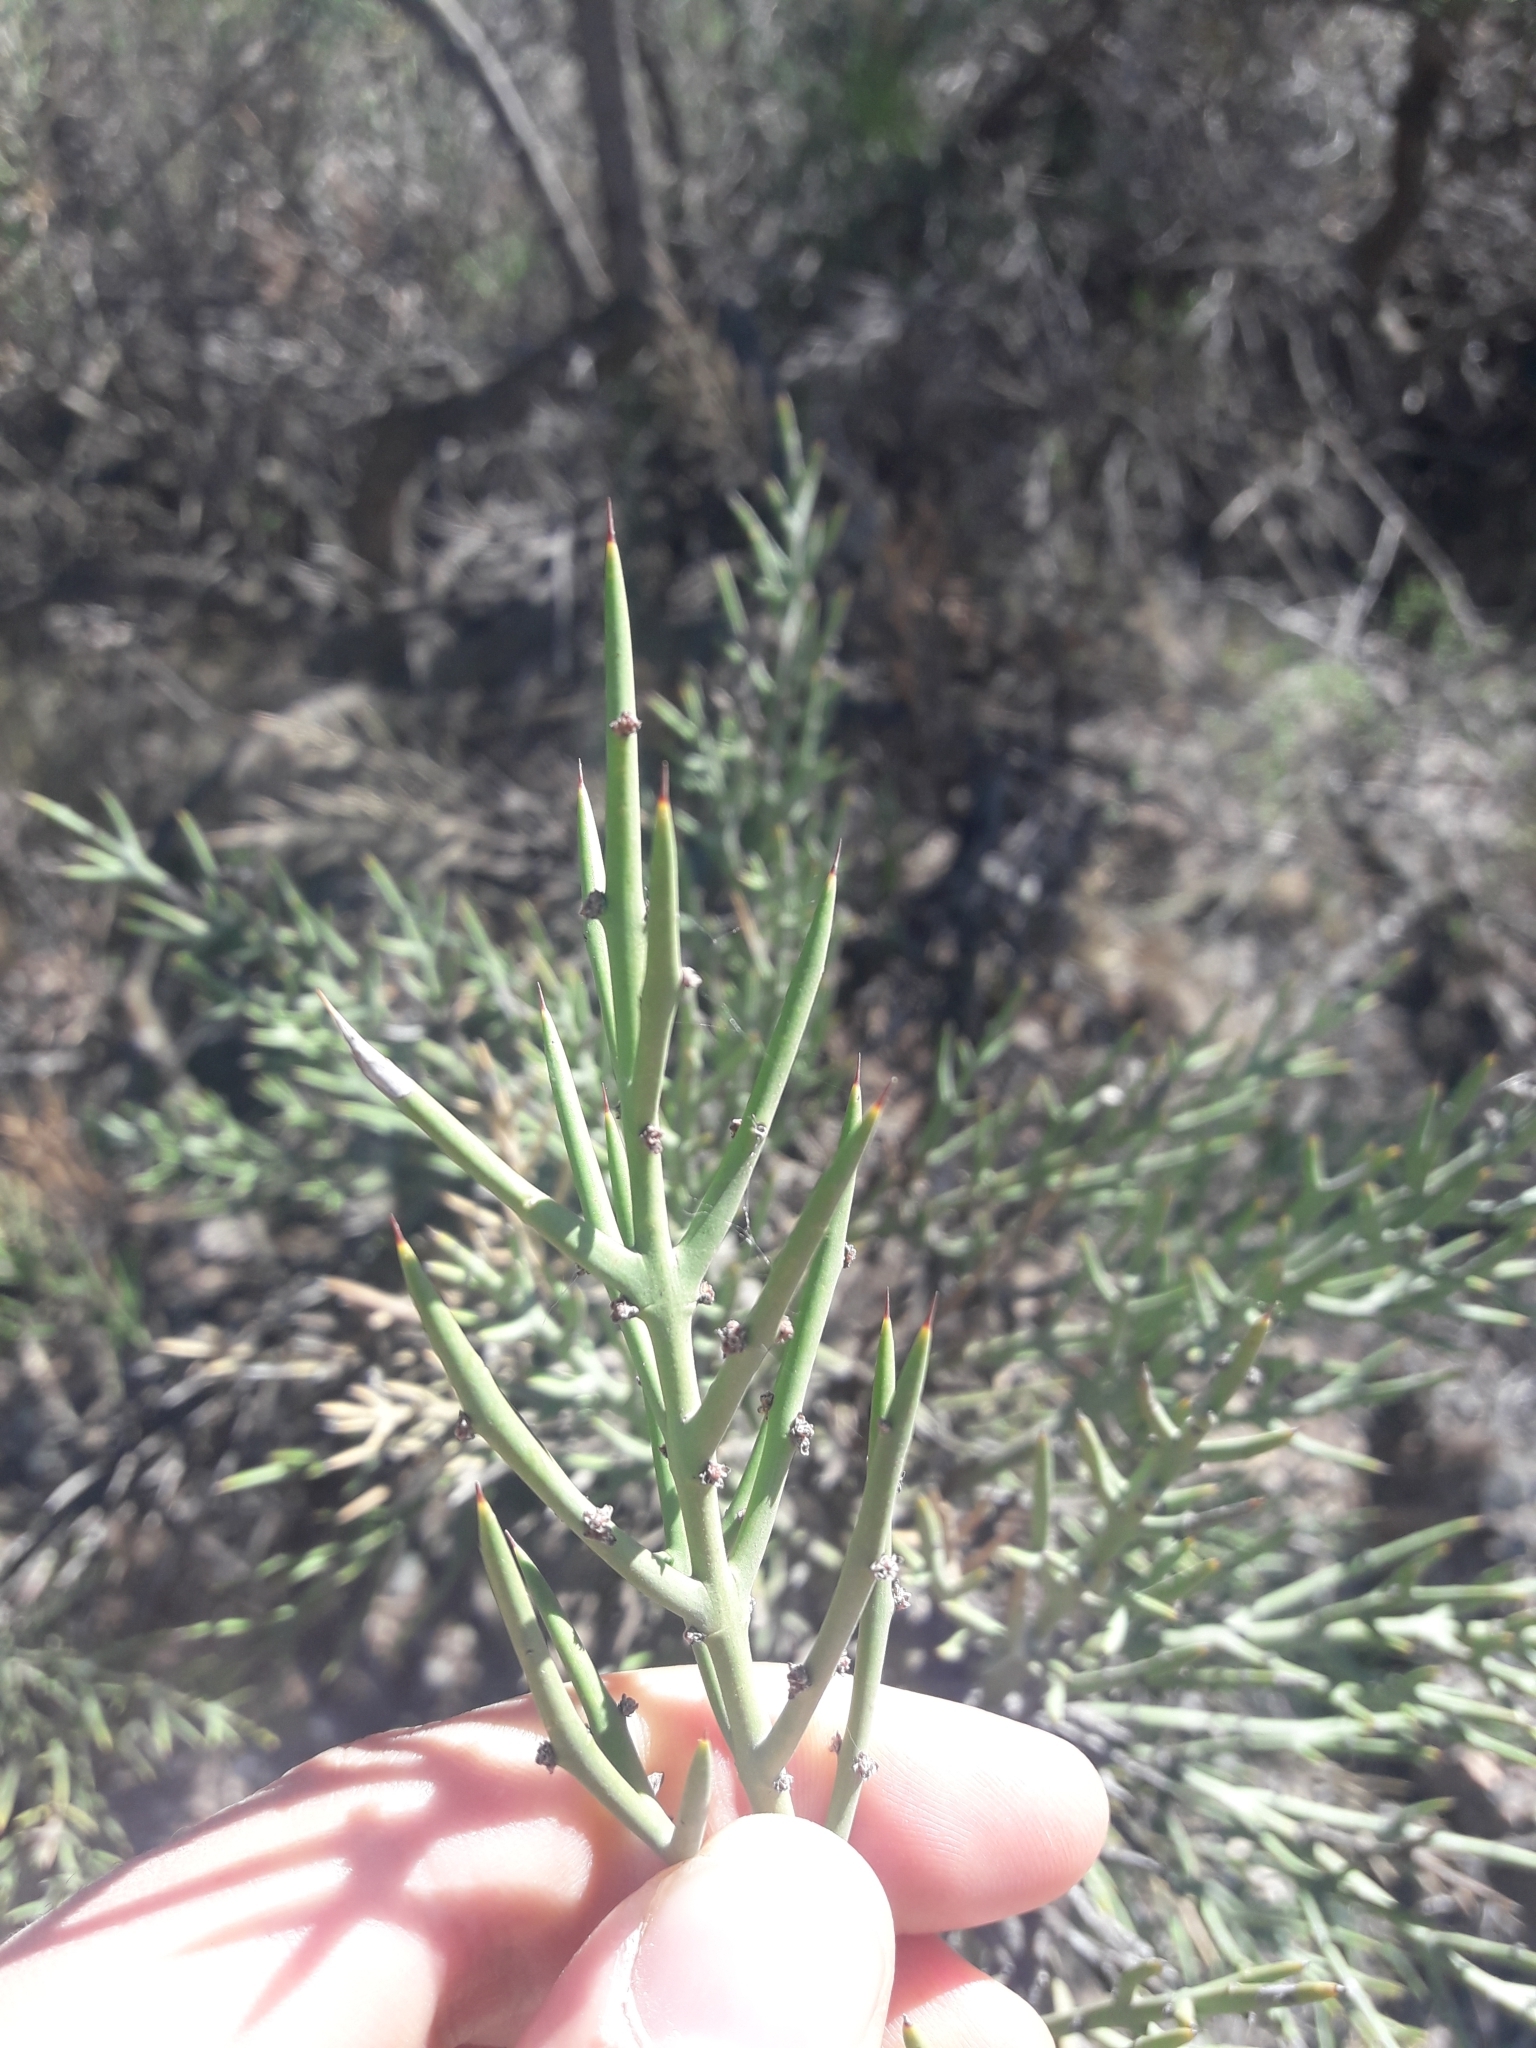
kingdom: Plantae
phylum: Tracheophyta
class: Magnoliopsida
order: Rosales
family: Rhamnaceae
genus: Colletia
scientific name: Colletia spinosissima
